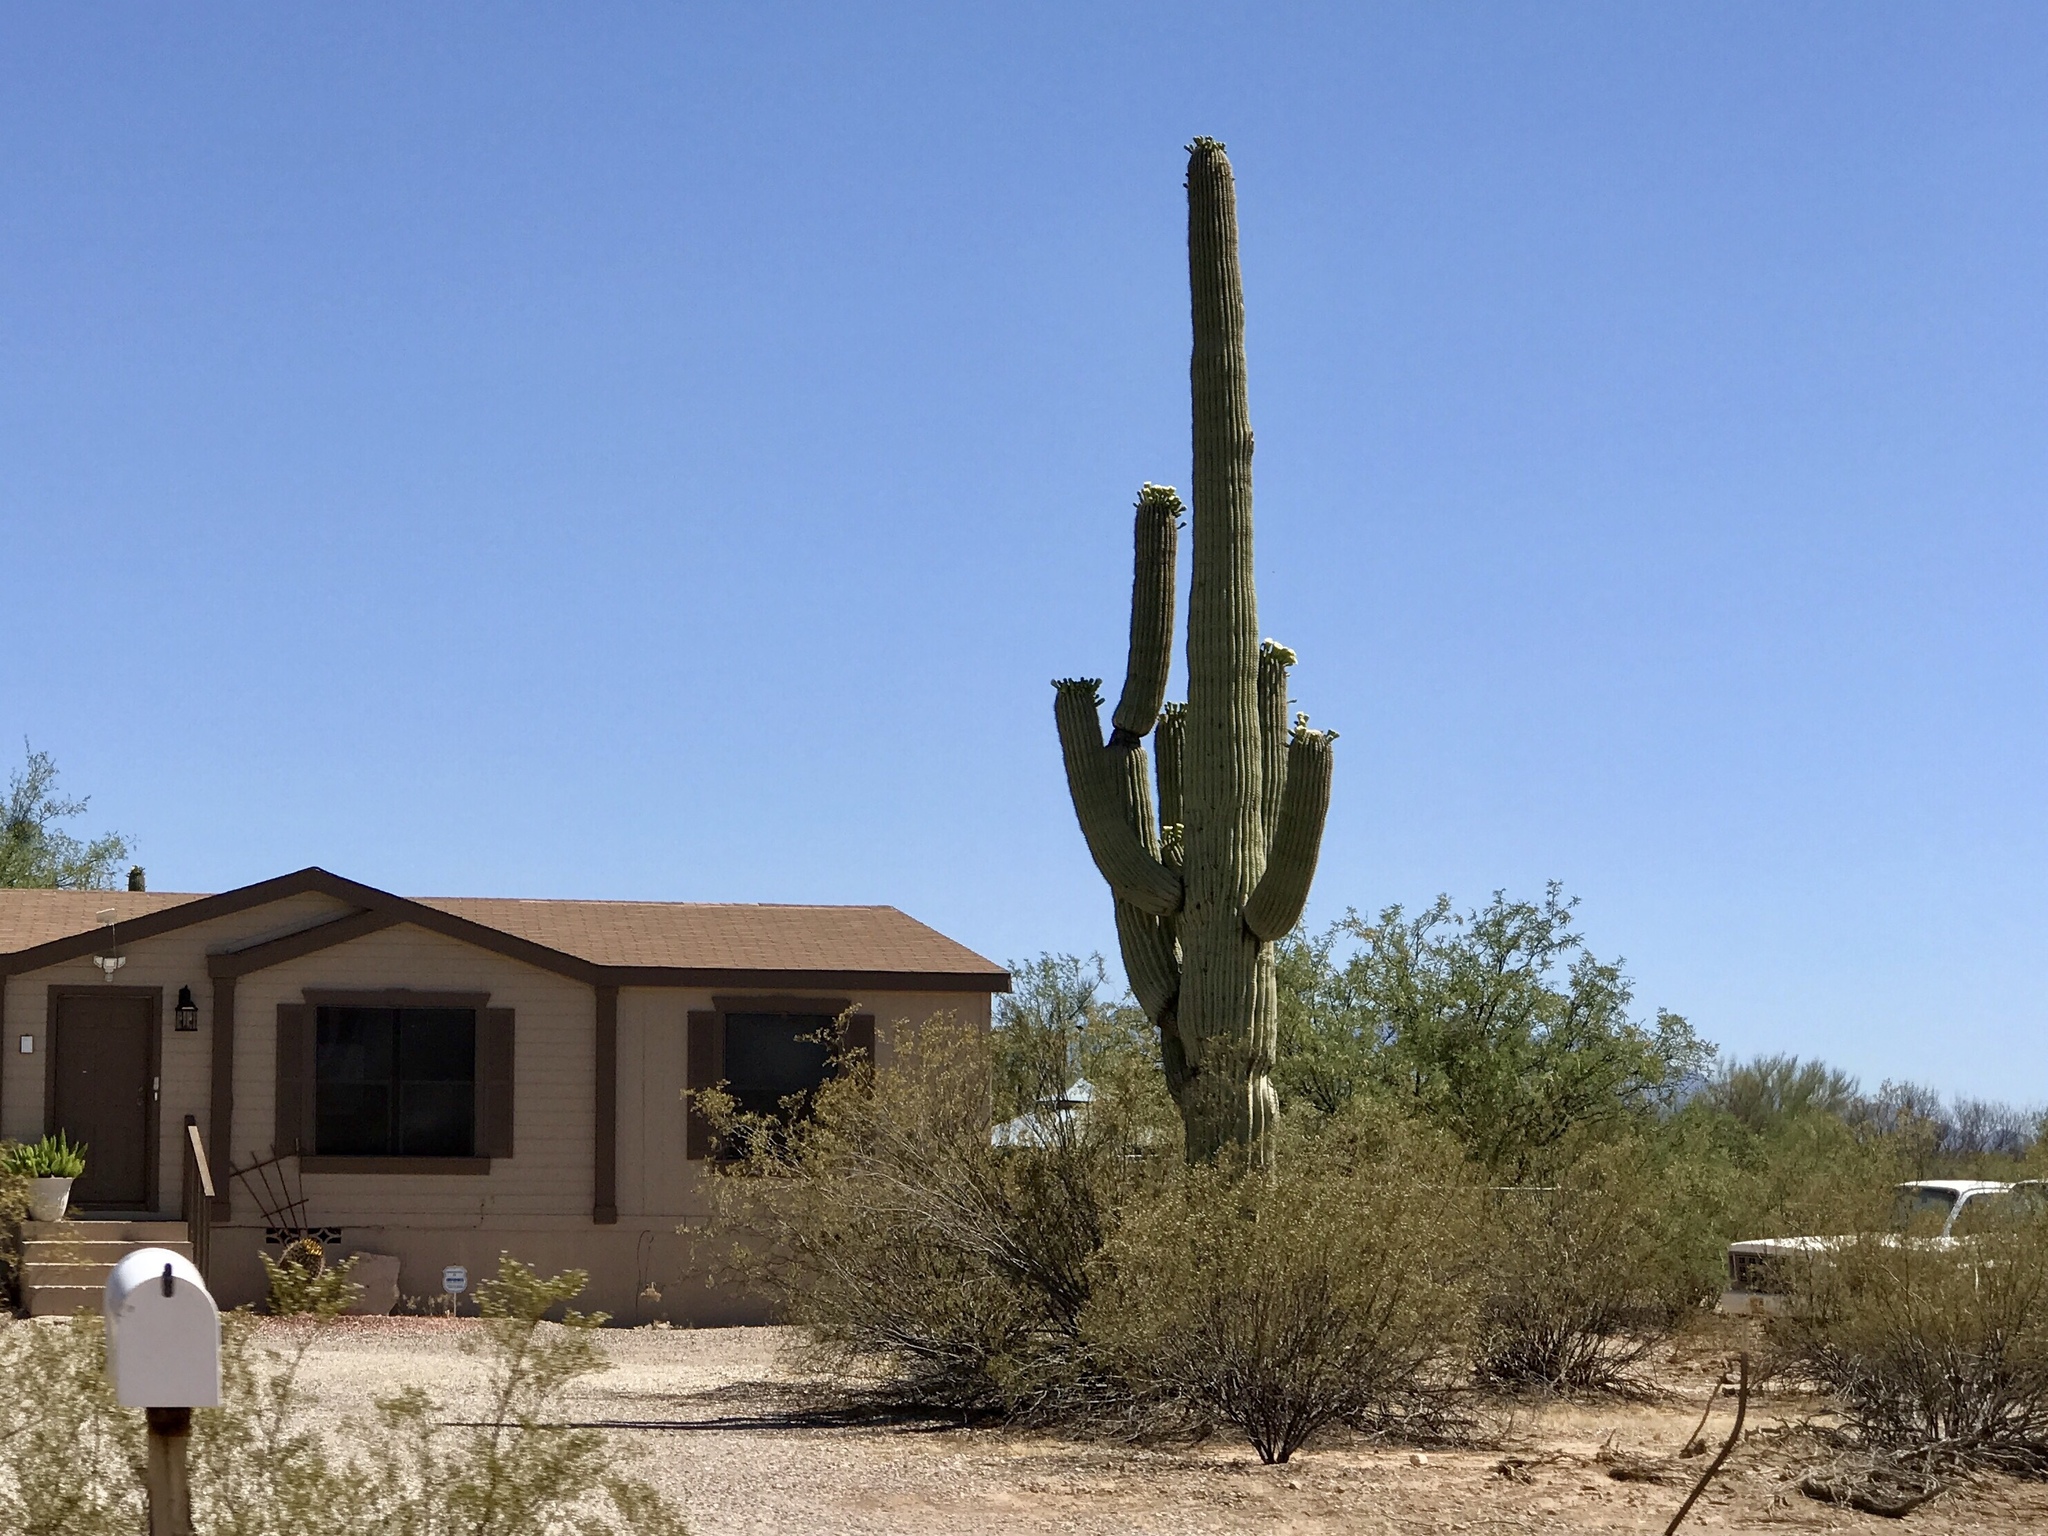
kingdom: Plantae
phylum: Tracheophyta
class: Magnoliopsida
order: Caryophyllales
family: Cactaceae
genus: Carnegiea
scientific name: Carnegiea gigantea
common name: Saguaro
